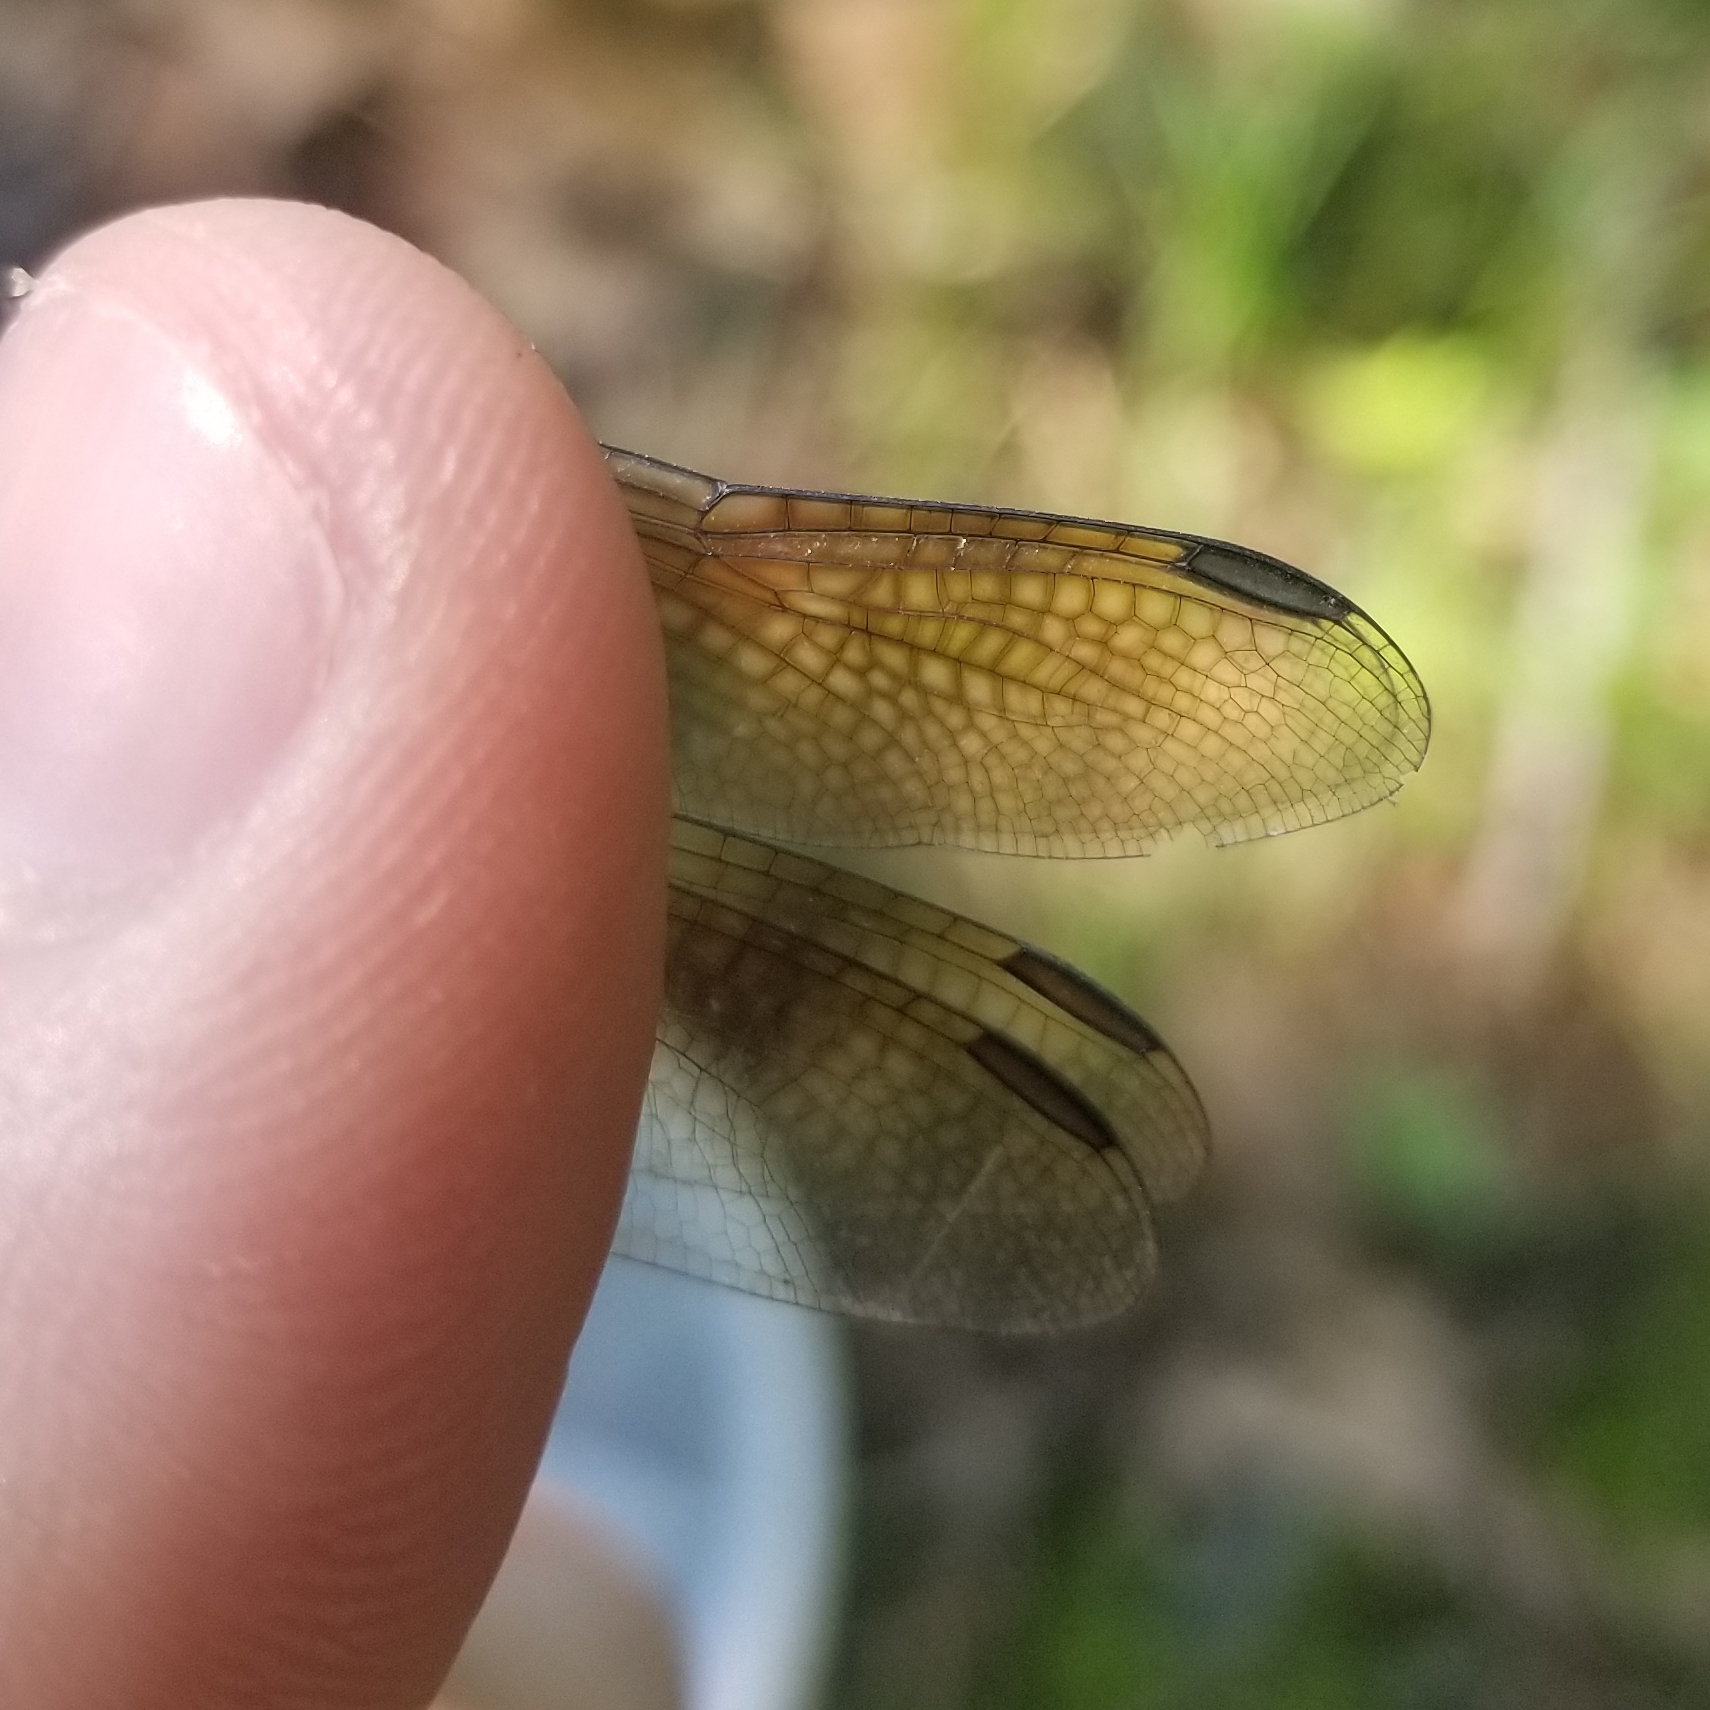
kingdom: Animalia
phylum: Arthropoda
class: Insecta
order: Odonata
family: Libellulidae
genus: Pachydiplax
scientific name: Pachydiplax longipennis
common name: Blue dasher
